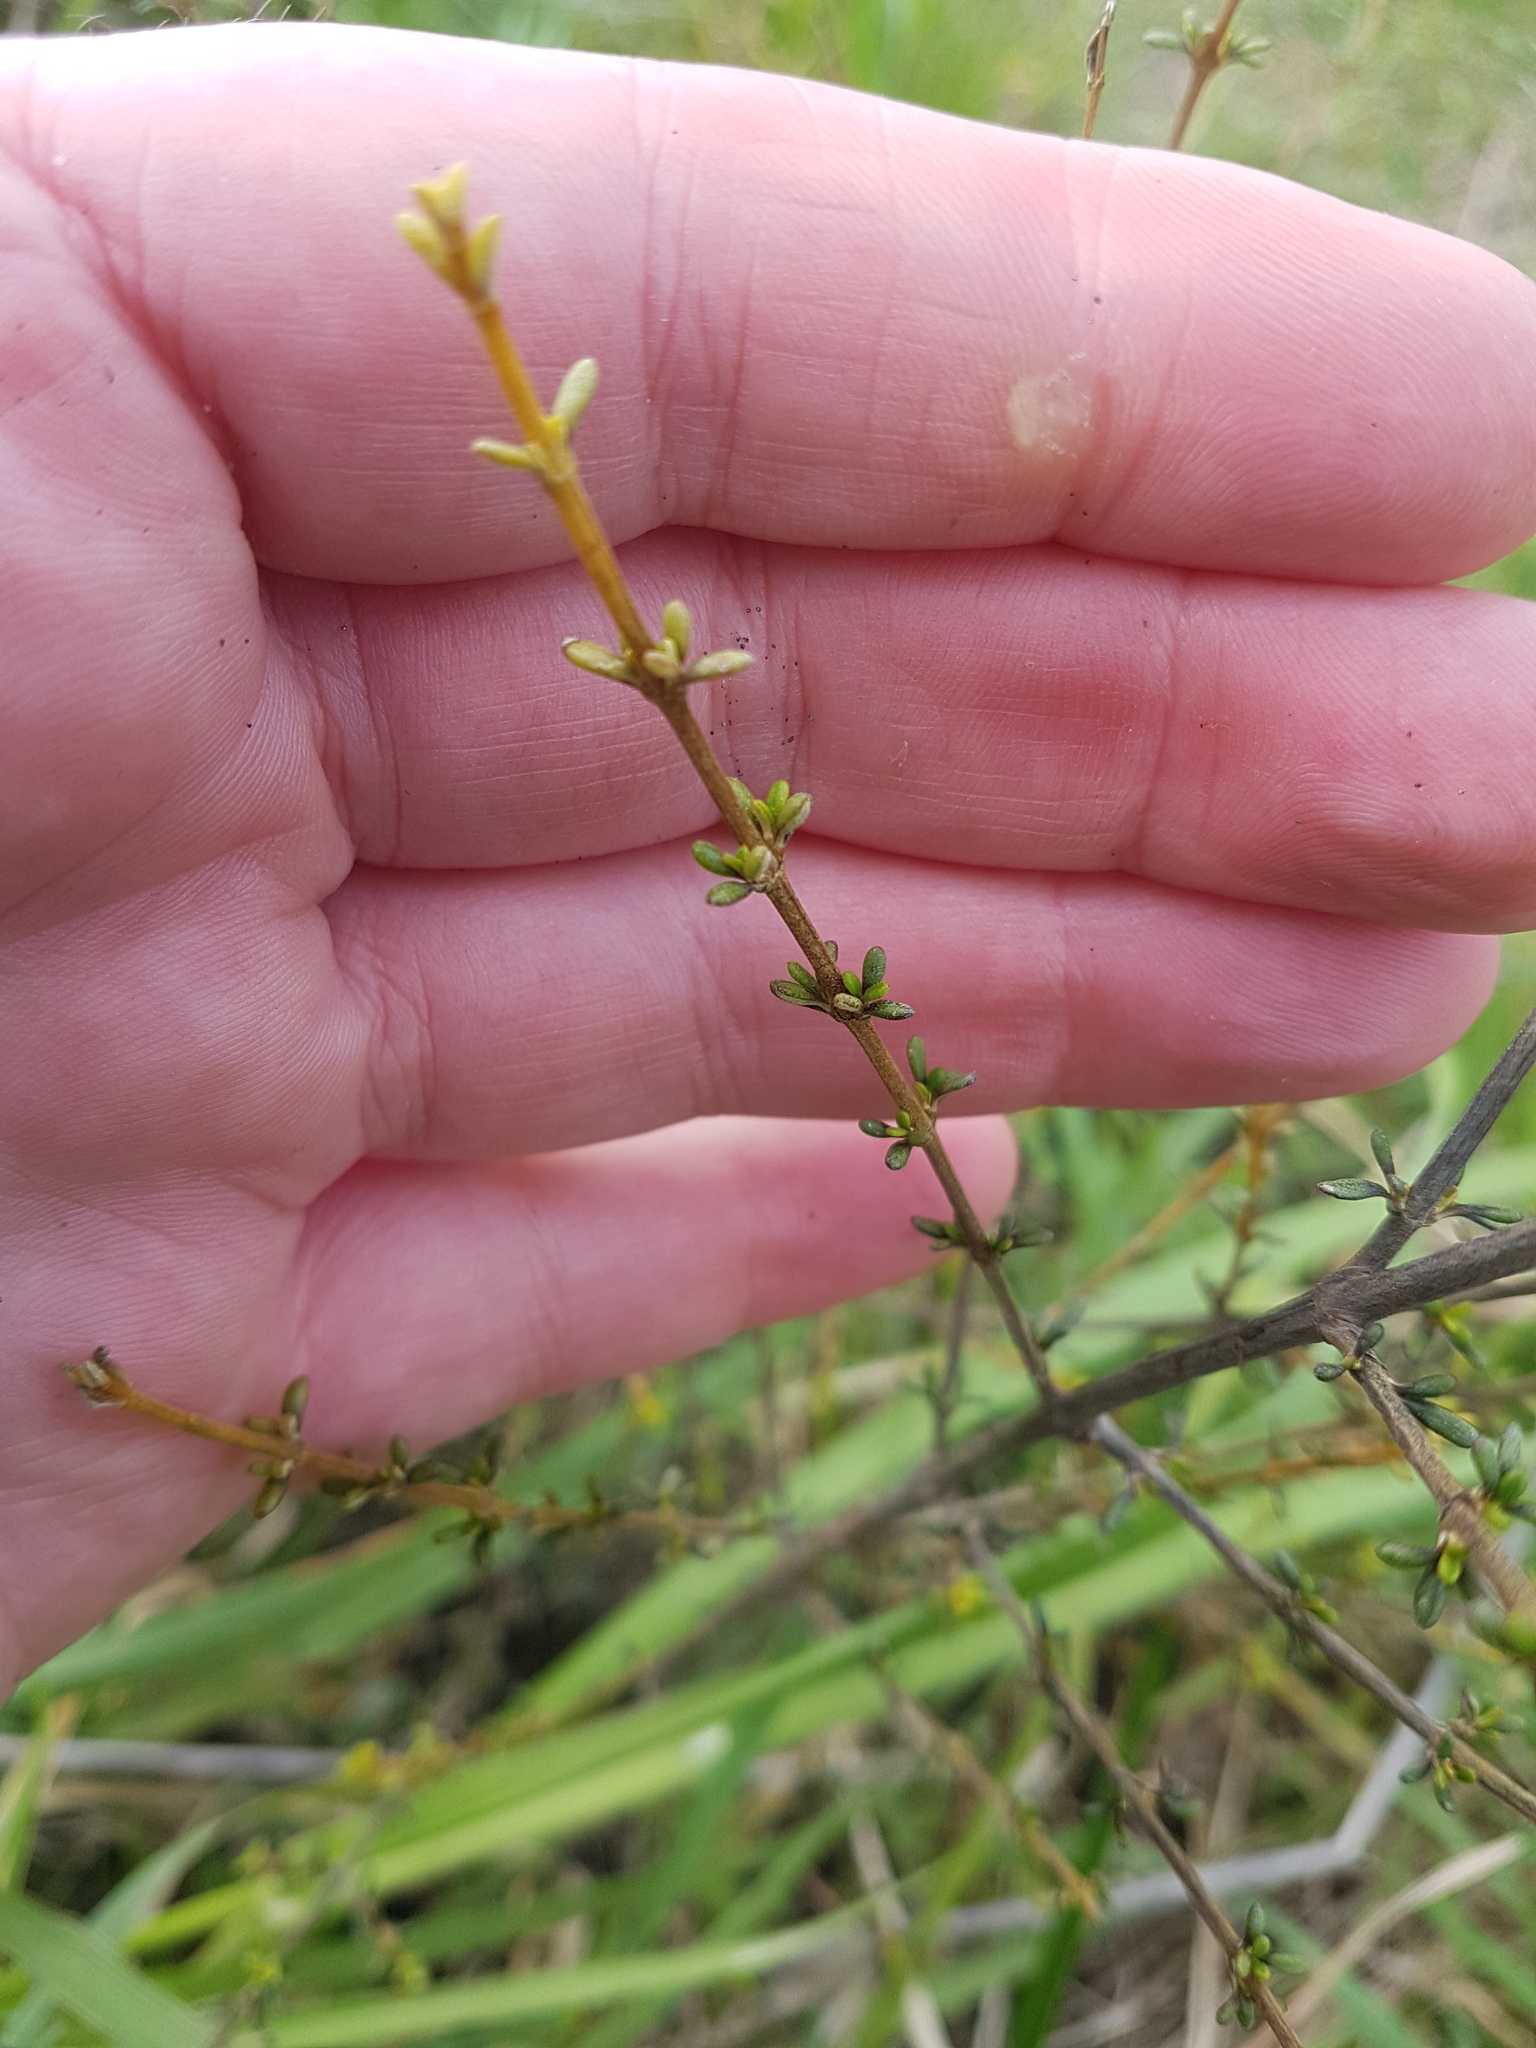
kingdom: Plantae
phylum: Tracheophyta
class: Magnoliopsida
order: Asterales
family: Asteraceae
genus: Olearia
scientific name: Olearia solandri
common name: Coastal daisybush
